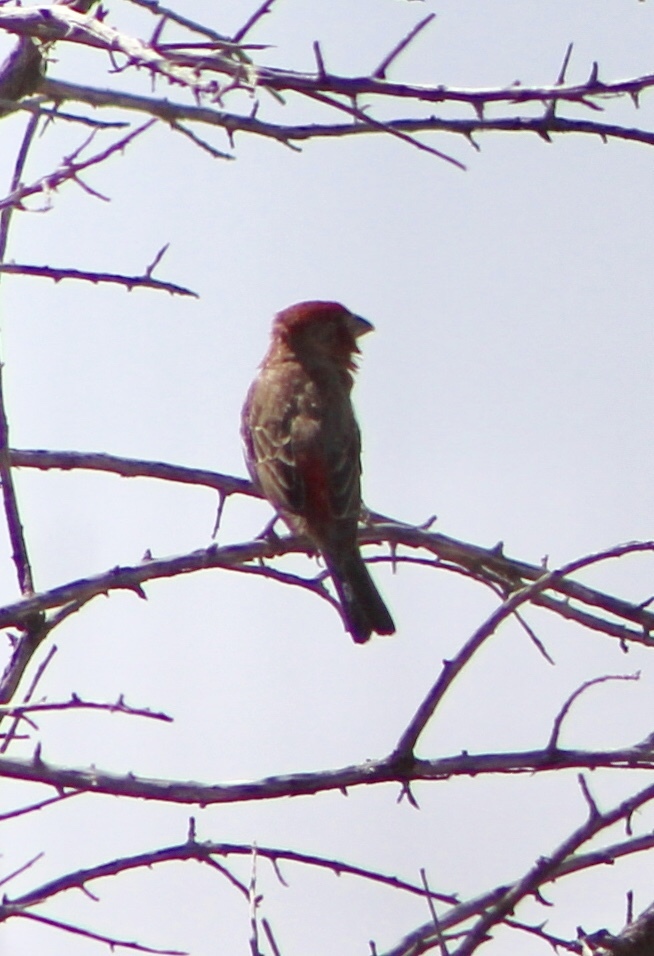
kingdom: Animalia
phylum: Chordata
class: Aves
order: Passeriformes
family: Fringillidae
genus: Haemorhous
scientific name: Haemorhous mexicanus
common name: House finch
